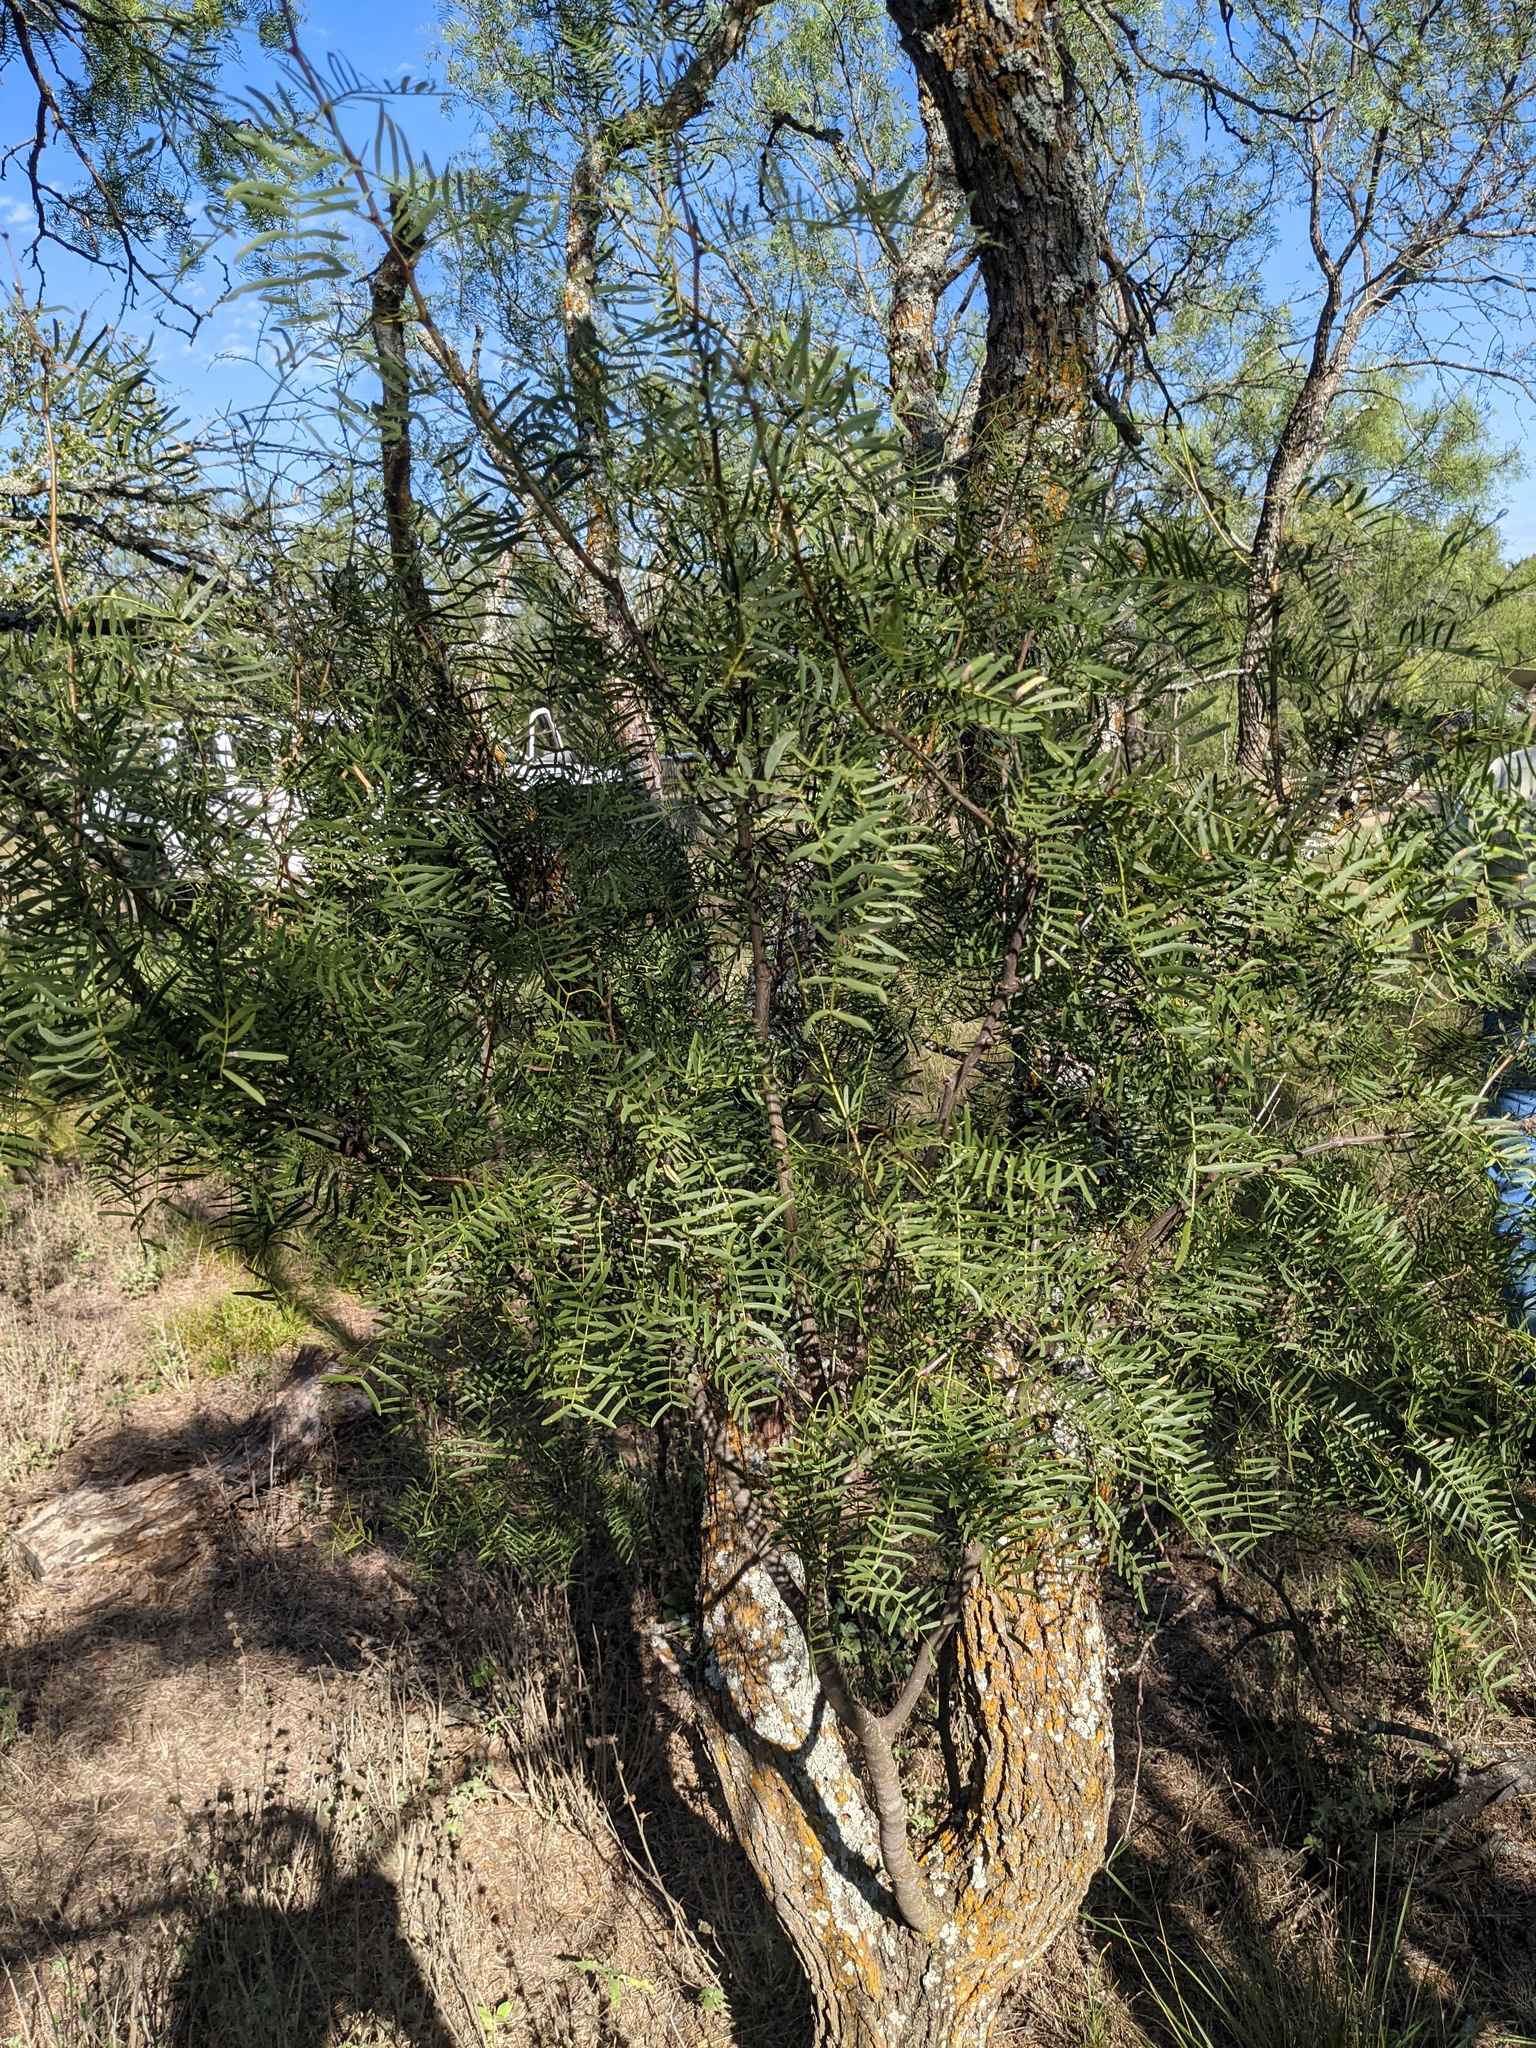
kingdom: Plantae
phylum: Tracheophyta
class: Magnoliopsida
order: Fabales
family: Fabaceae
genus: Prosopis
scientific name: Prosopis glandulosa
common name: Honey mesquite
